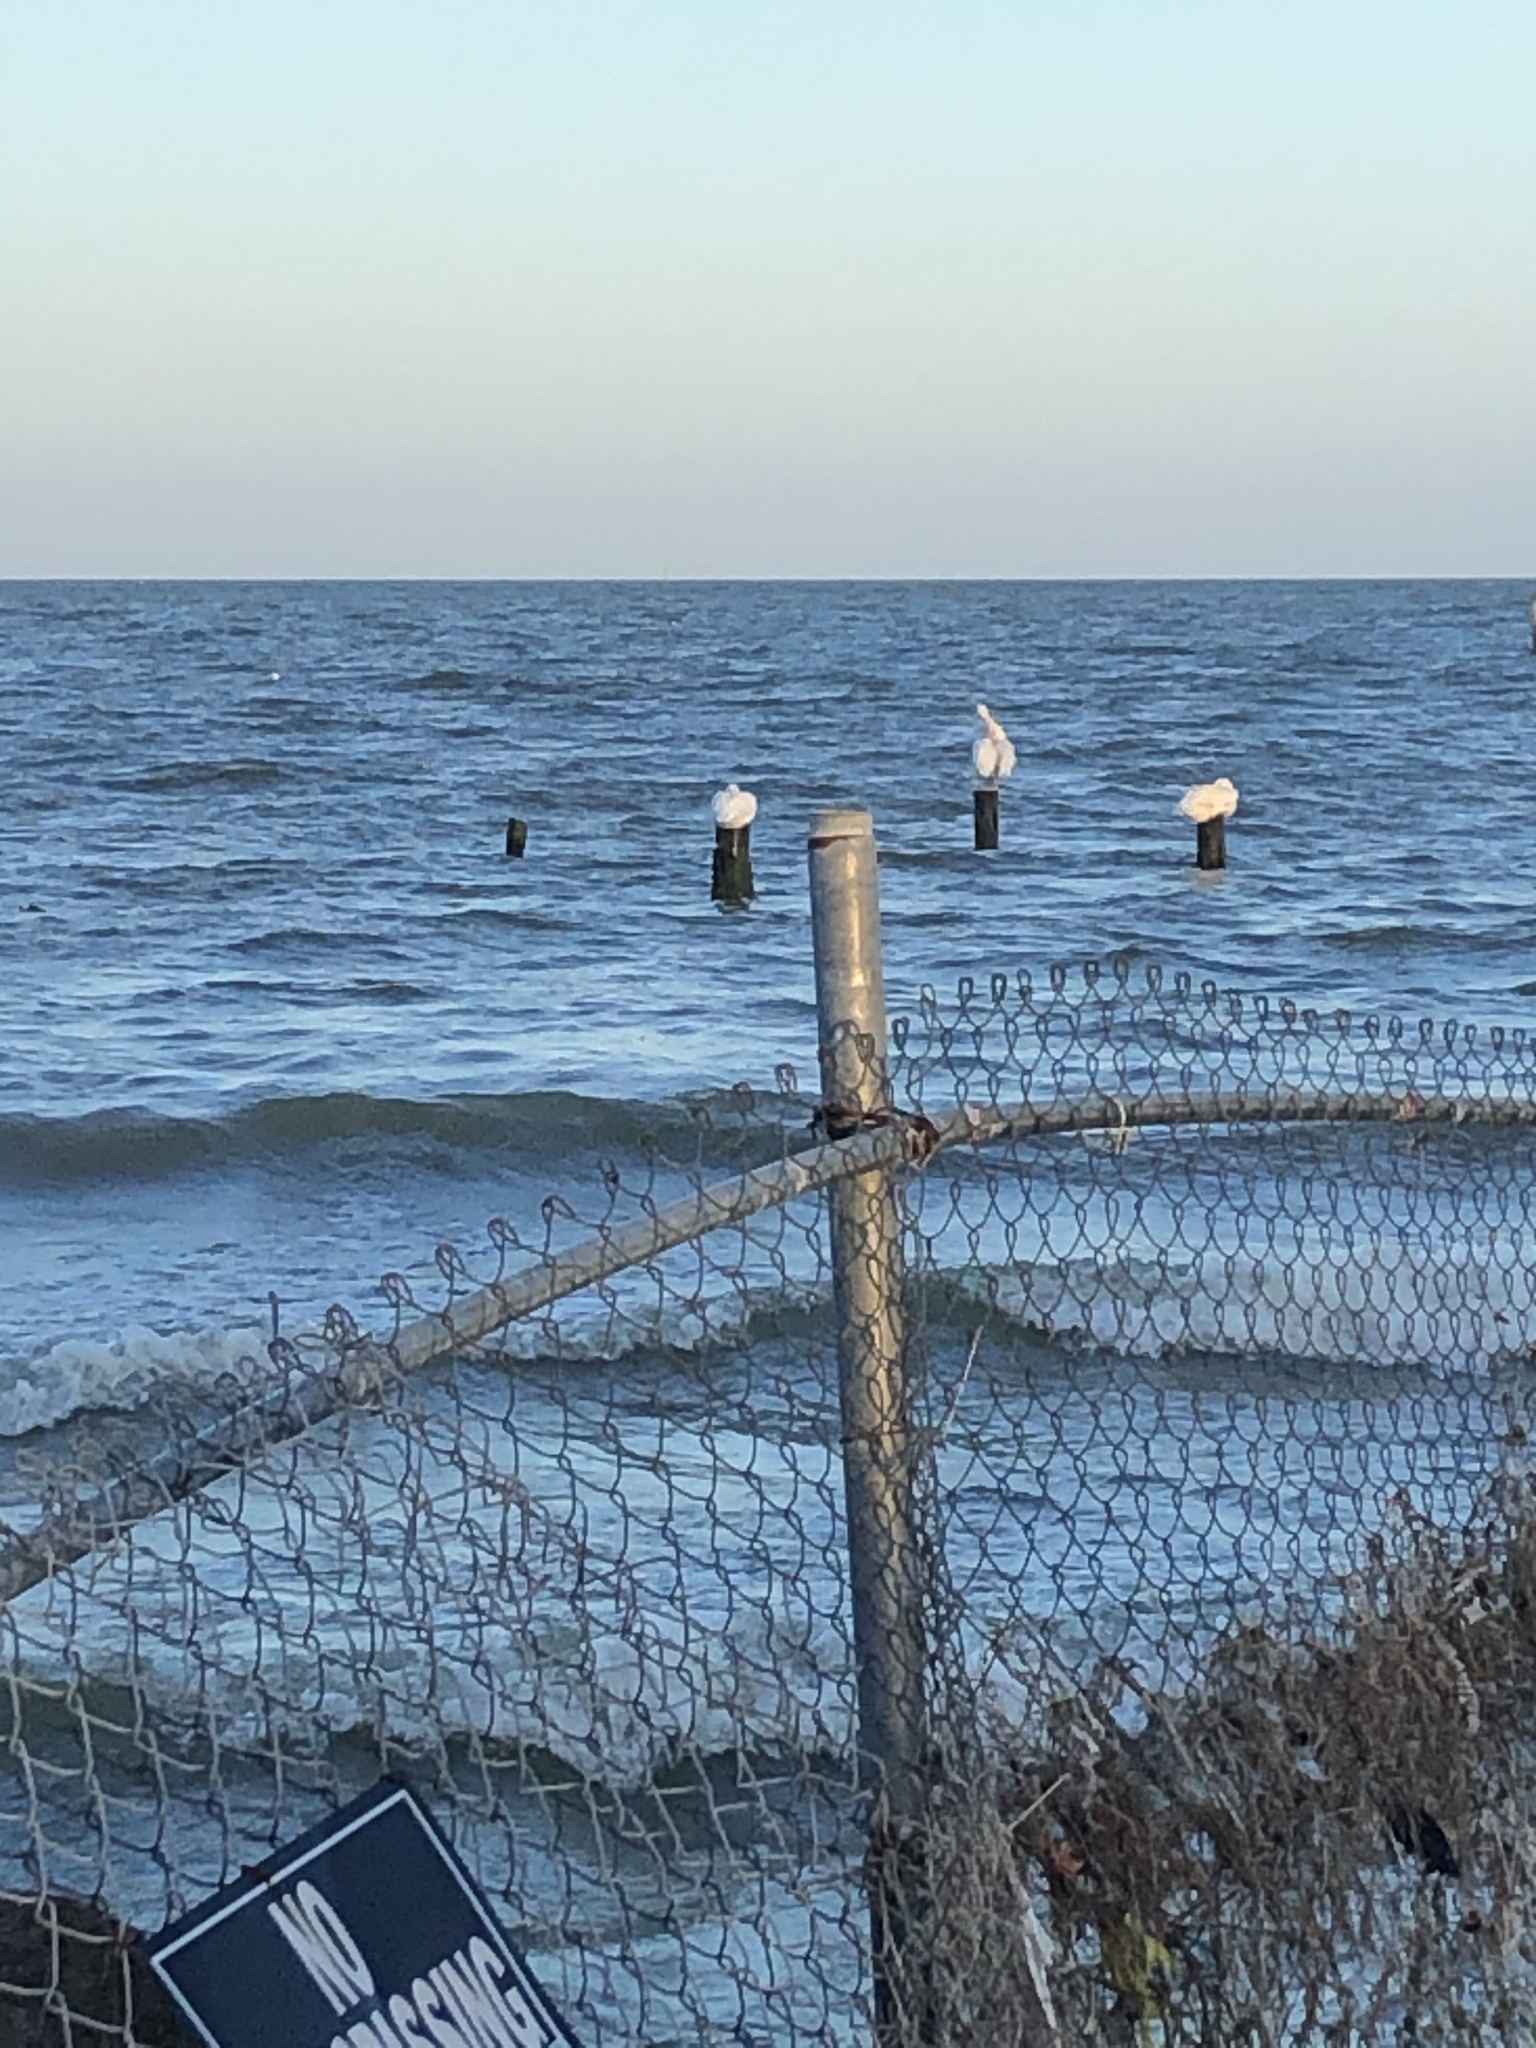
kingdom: Animalia
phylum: Chordata
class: Aves
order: Pelecaniformes
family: Pelecanidae
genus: Pelecanus
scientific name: Pelecanus erythrorhynchos
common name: American white pelican
